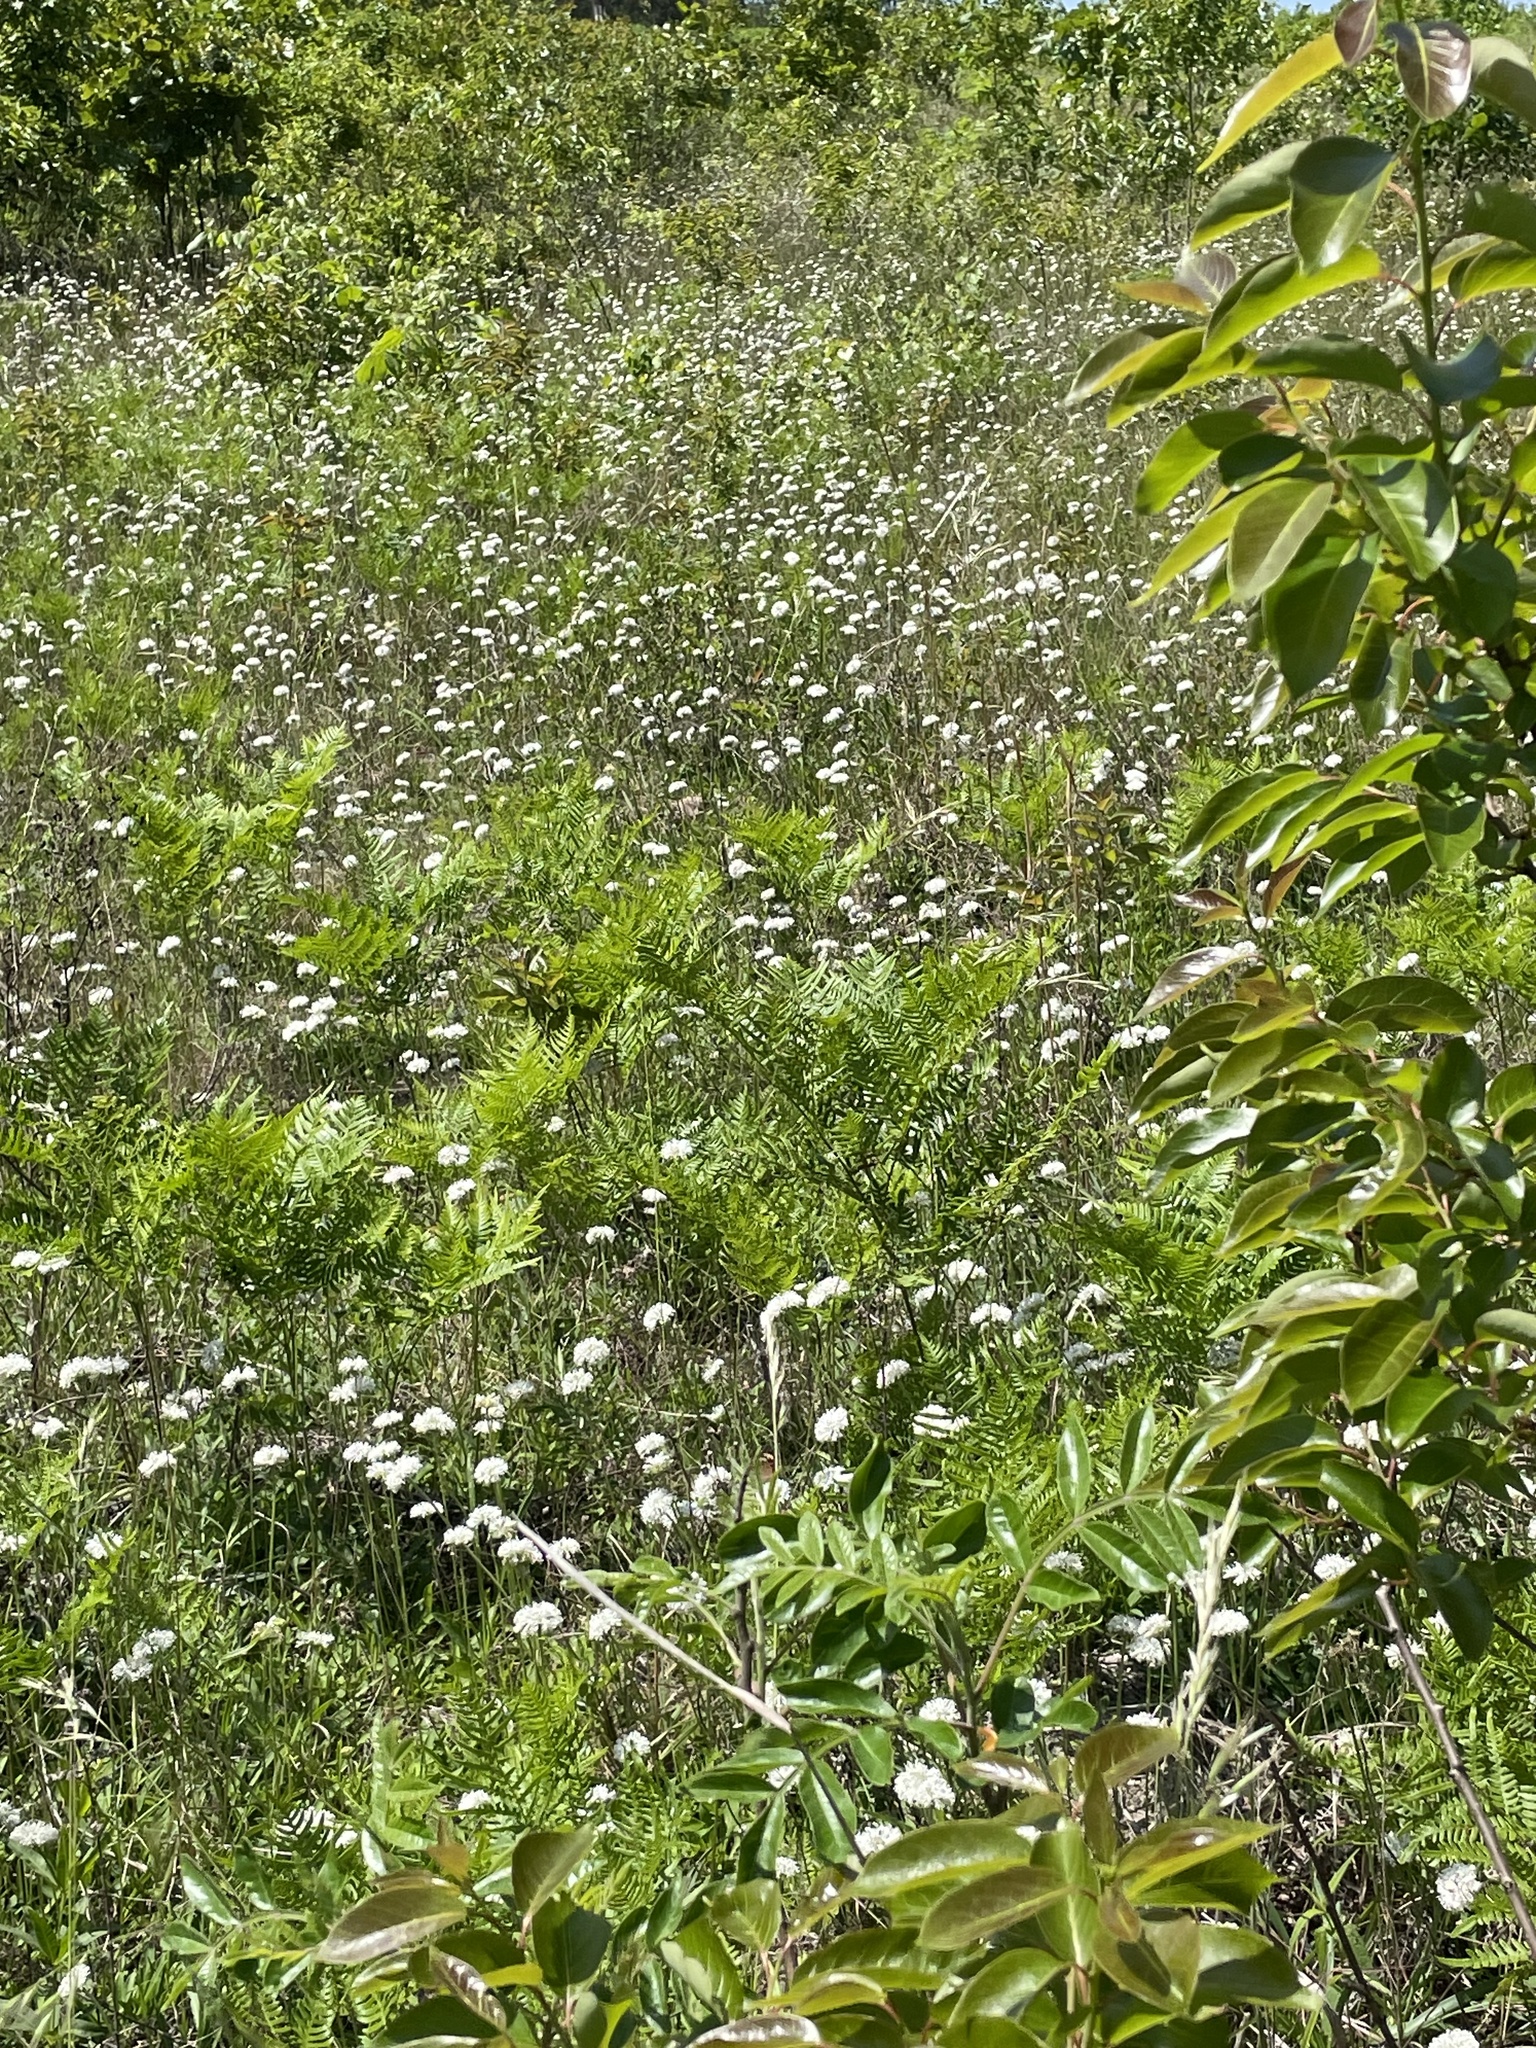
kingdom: Plantae
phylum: Tracheophyta
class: Magnoliopsida
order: Asterales
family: Asteraceae
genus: Marshallia
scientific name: Marshallia obovata
